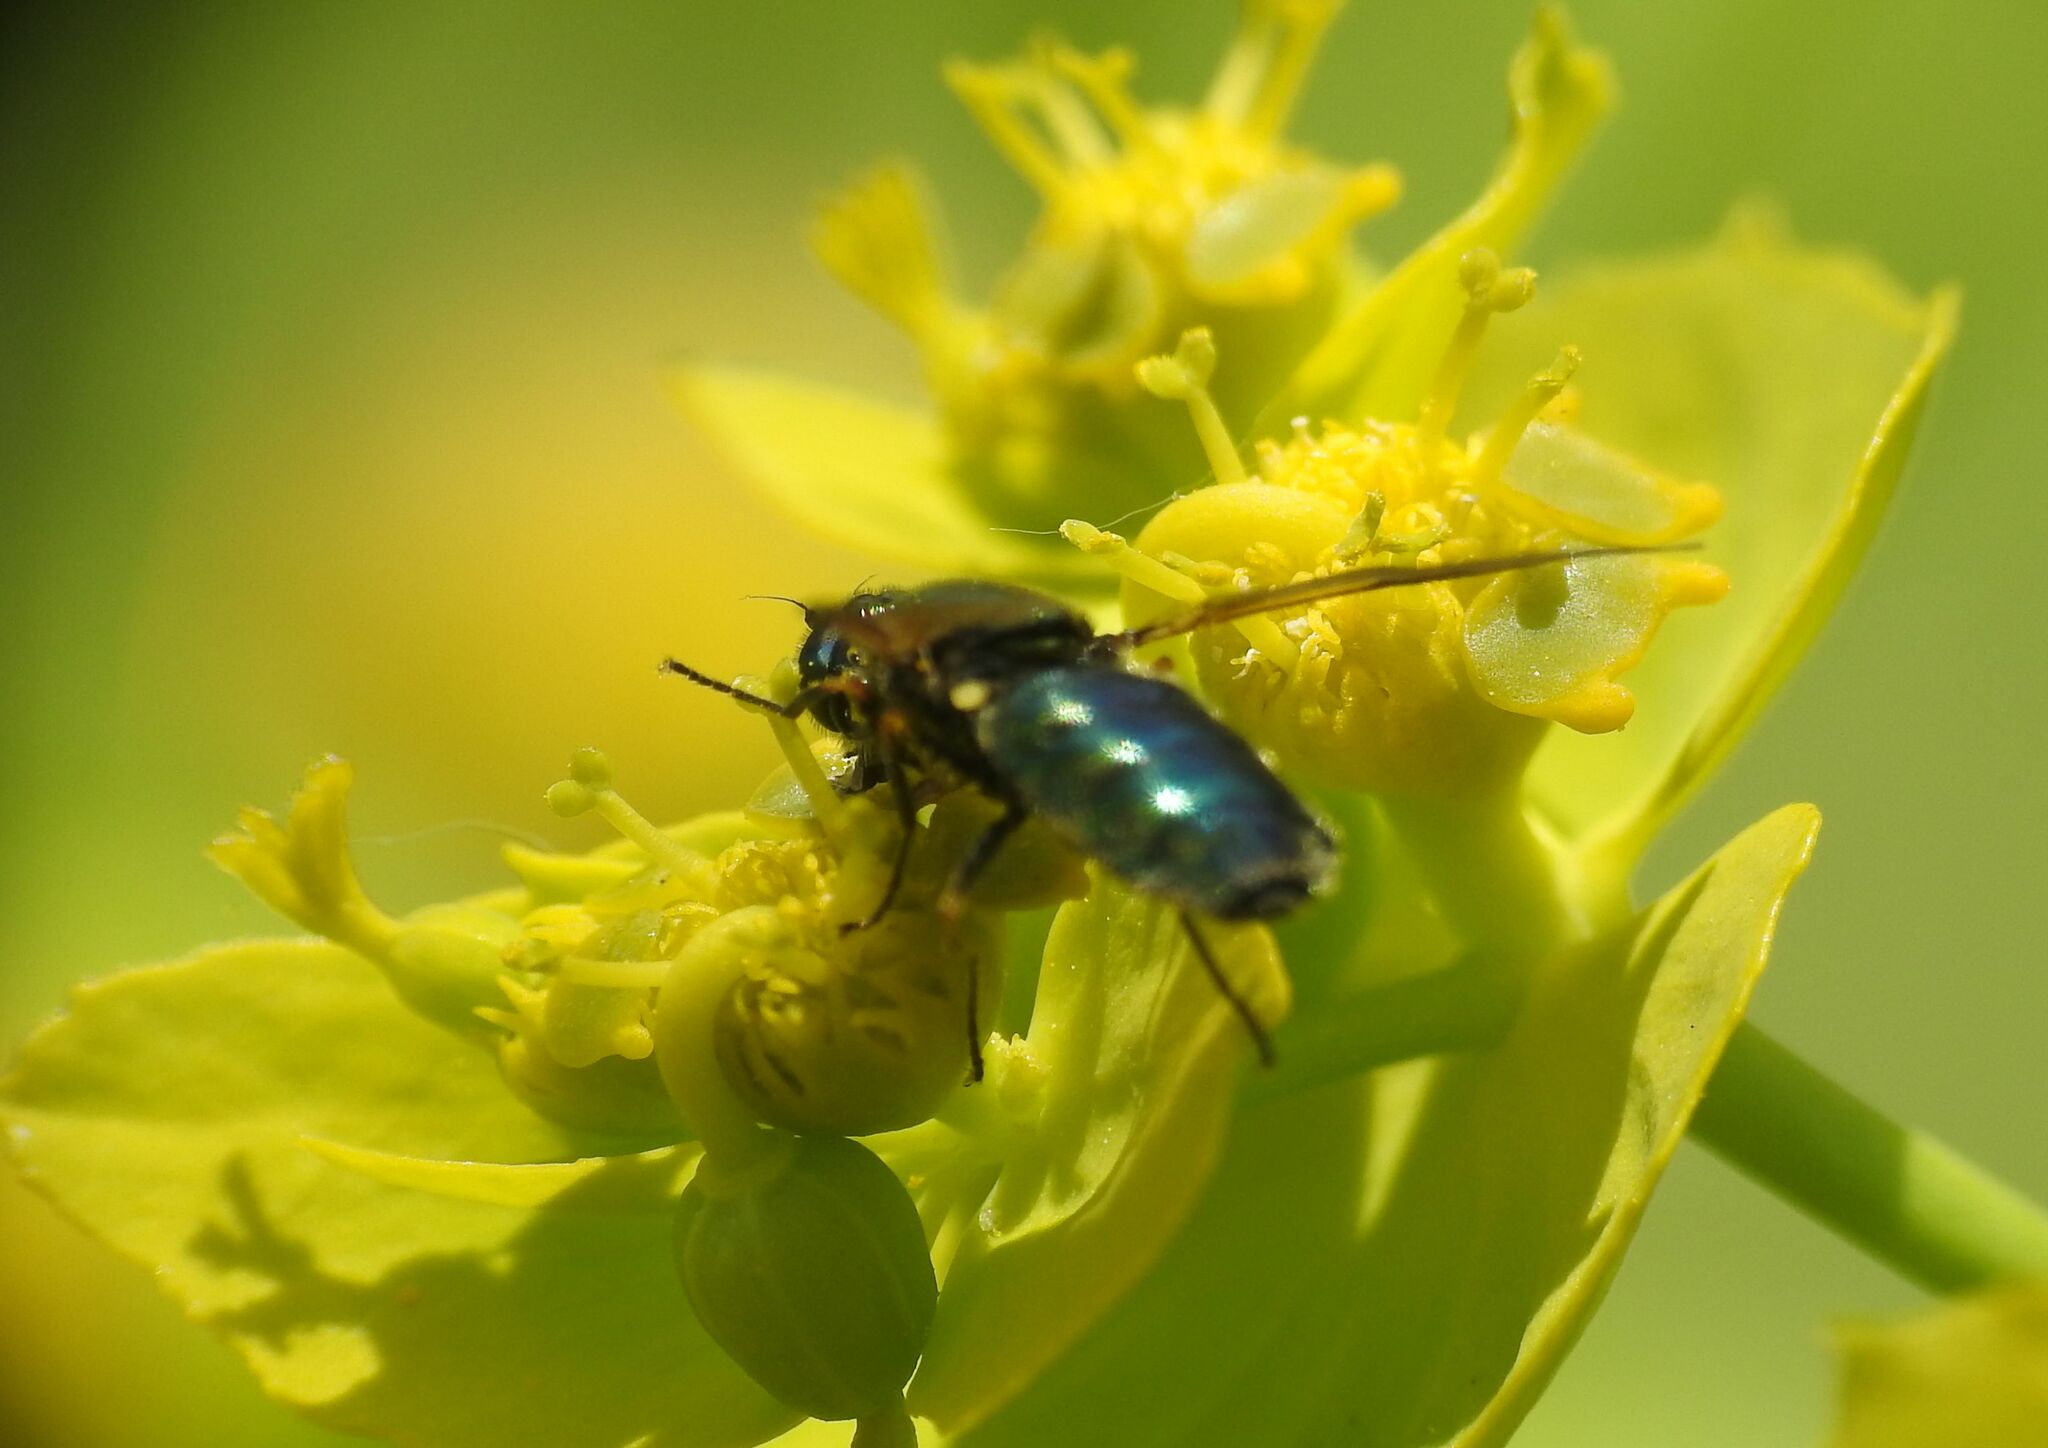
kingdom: Animalia
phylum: Arthropoda
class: Insecta
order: Diptera
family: Stratiomyidae
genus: Chloromyia
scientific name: Chloromyia formosa
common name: Soldier fly
